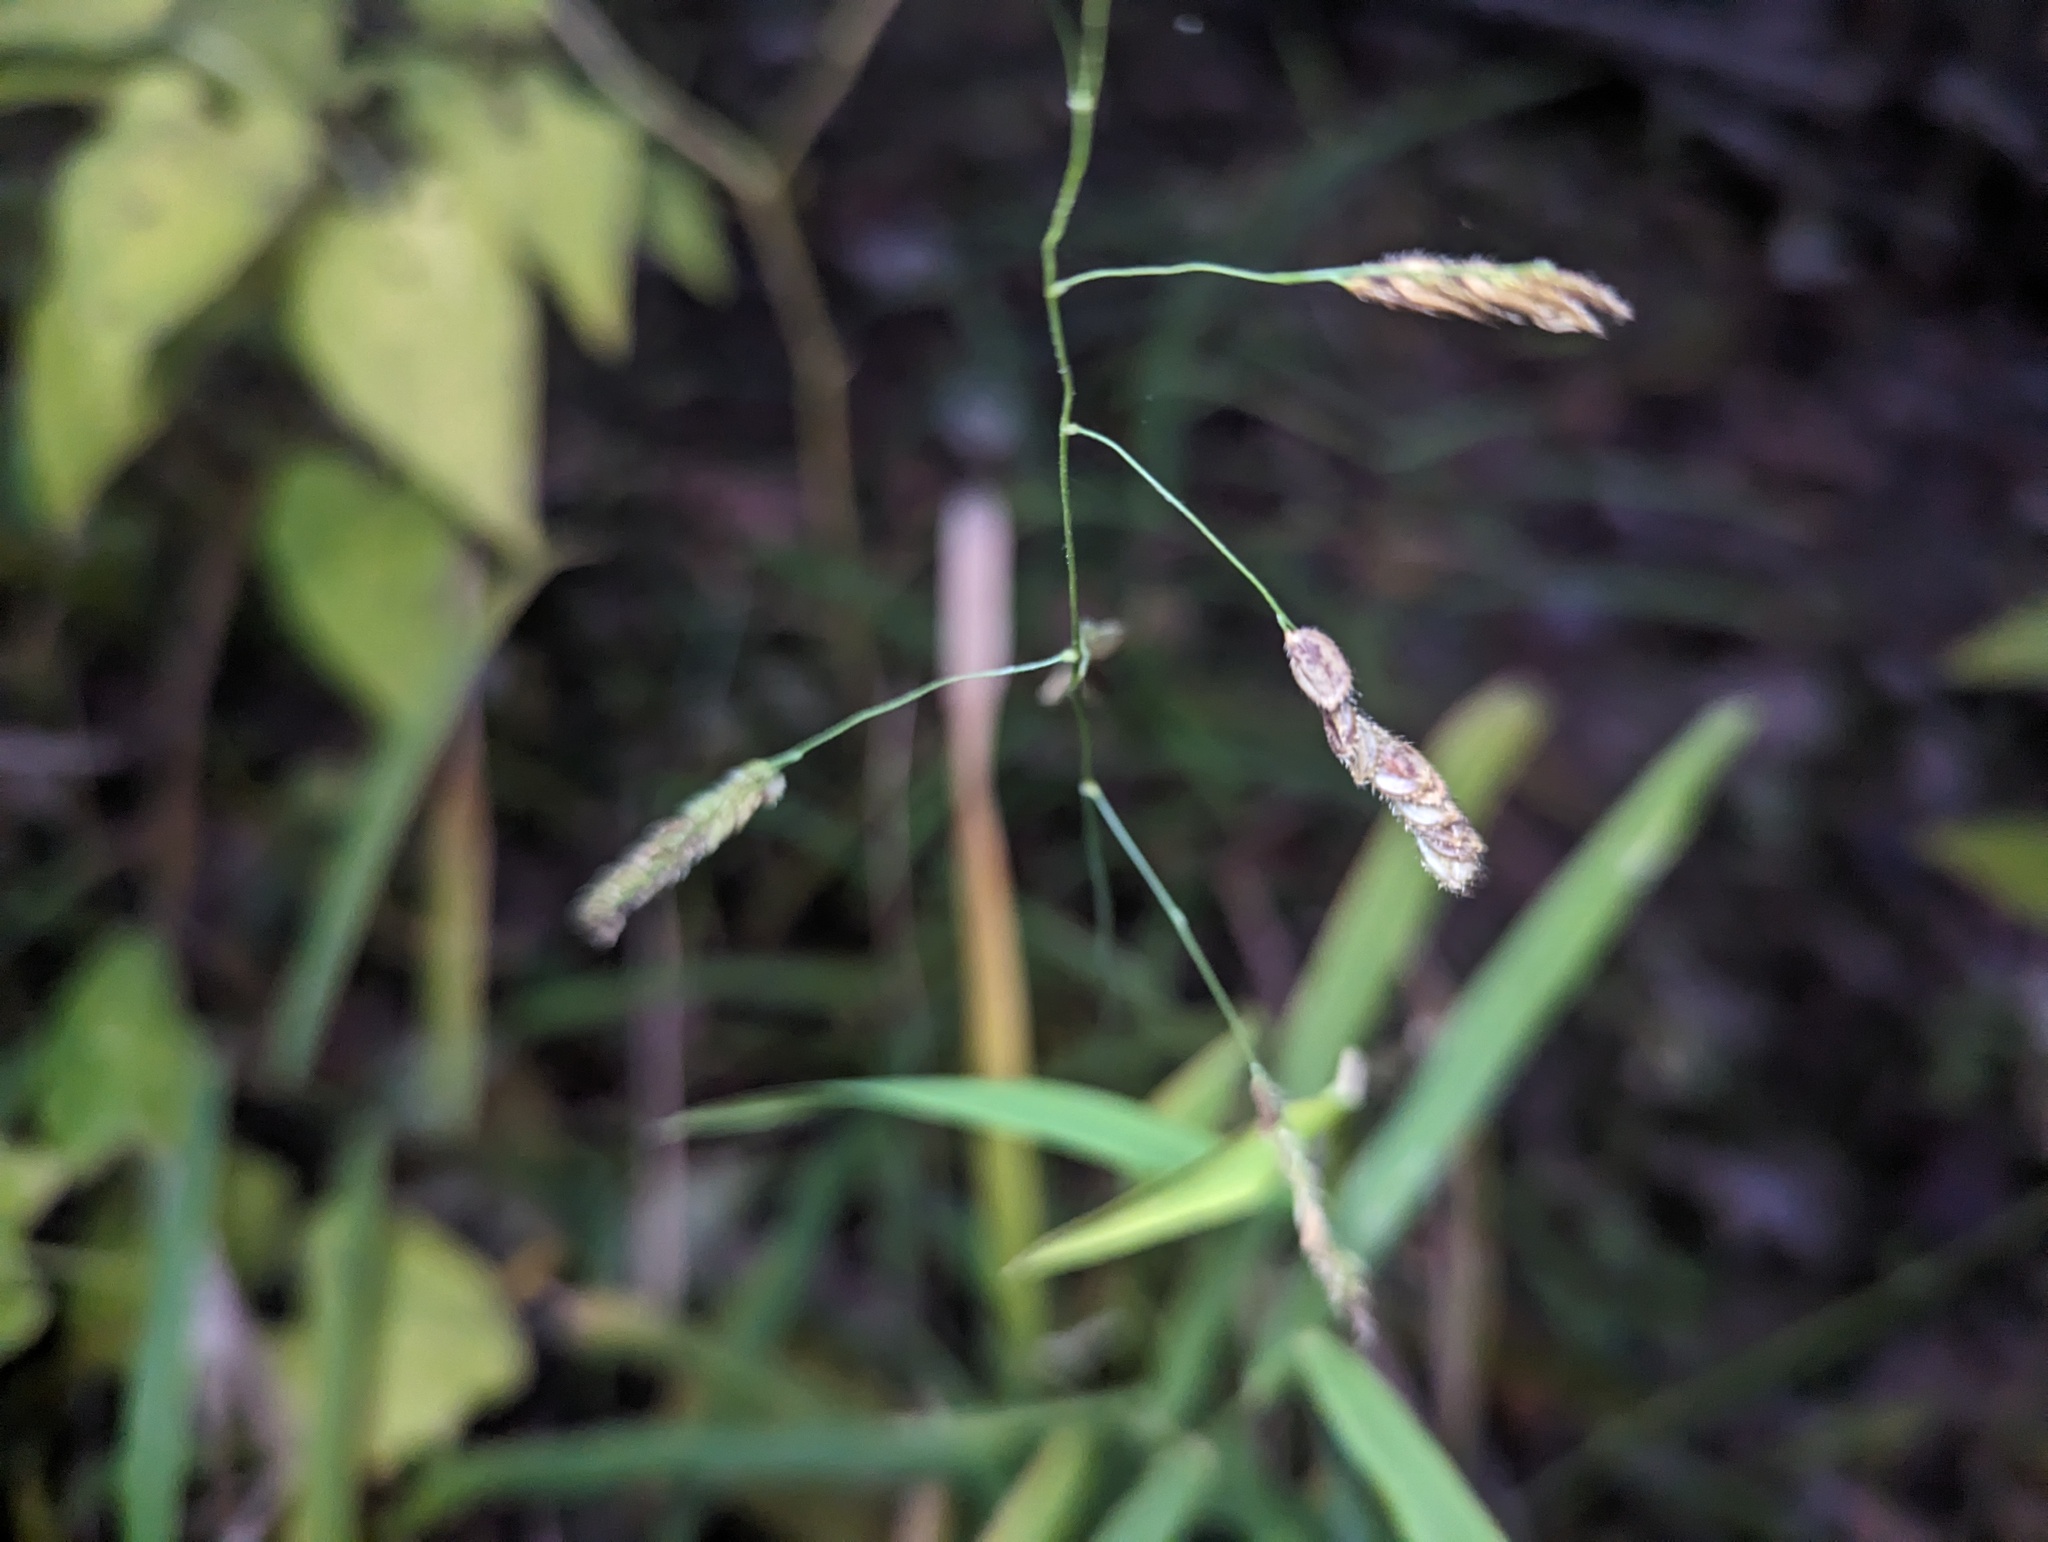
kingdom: Plantae
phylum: Tracheophyta
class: Liliopsida
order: Poales
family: Poaceae
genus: Leersia
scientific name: Leersia lenticularis
